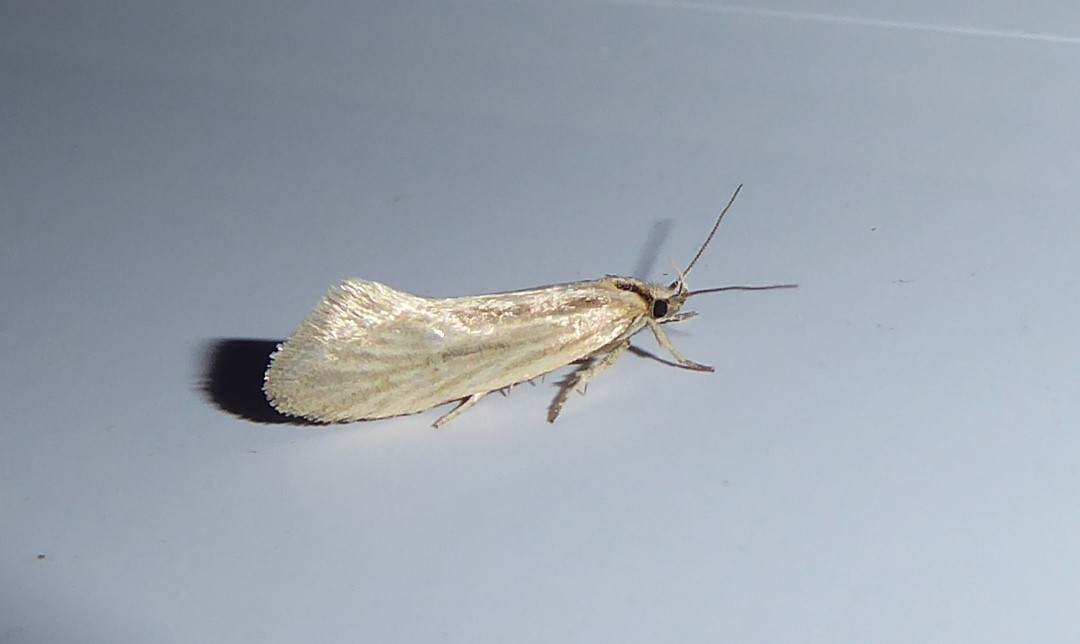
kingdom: Animalia
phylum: Arthropoda
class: Insecta
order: Lepidoptera
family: Oecophoridae
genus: Tingena
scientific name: Tingena chloradelpha
